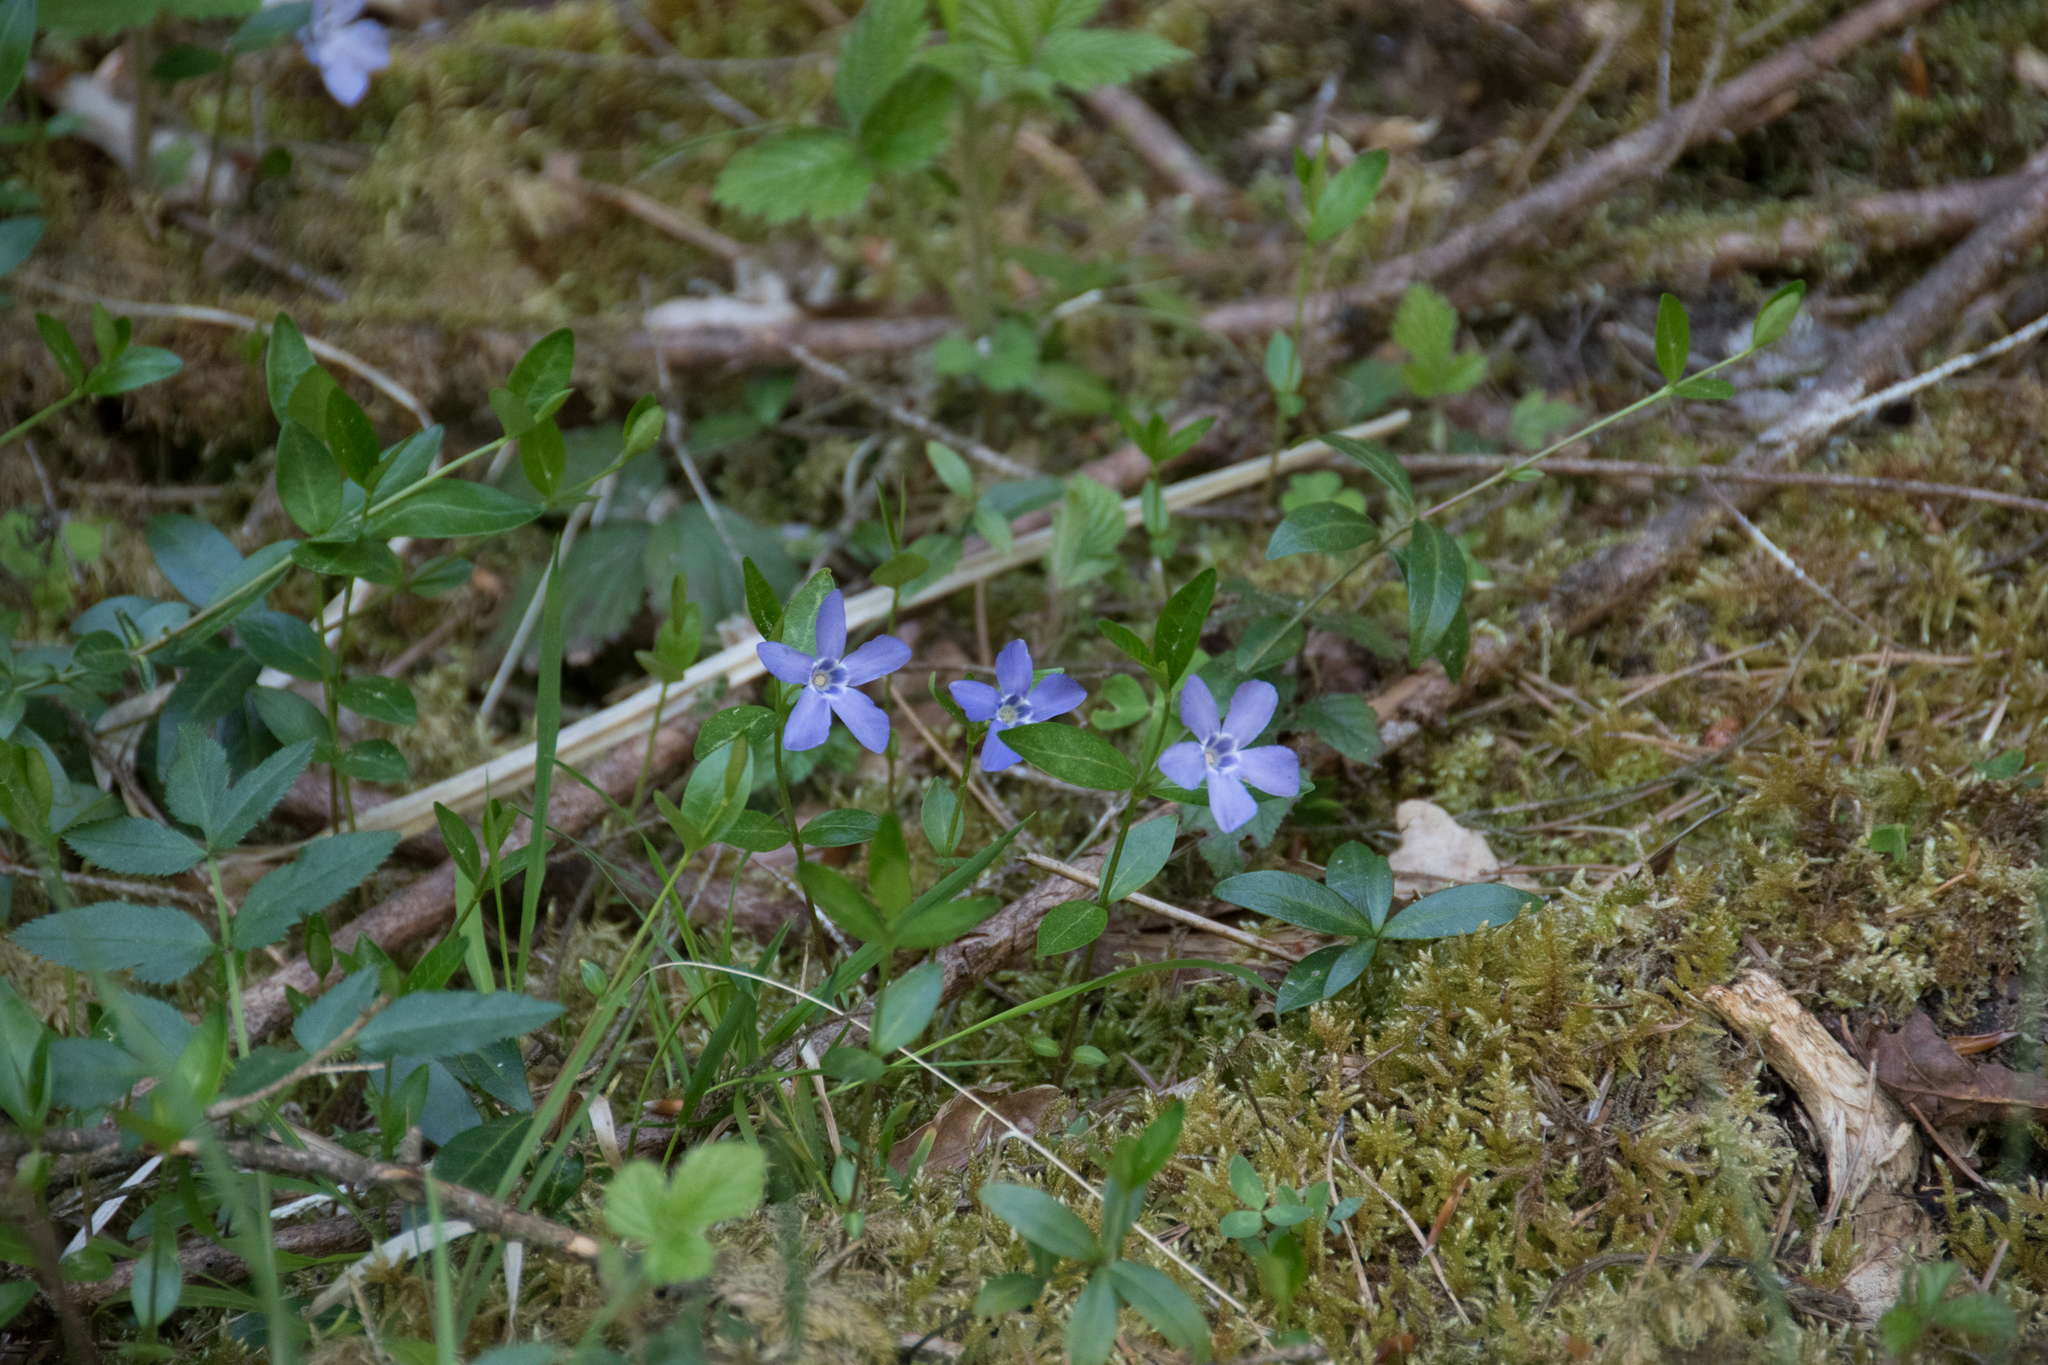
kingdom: Plantae
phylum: Tracheophyta
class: Magnoliopsida
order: Gentianales
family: Apocynaceae
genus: Vinca
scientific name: Vinca minor
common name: Lesser periwinkle
